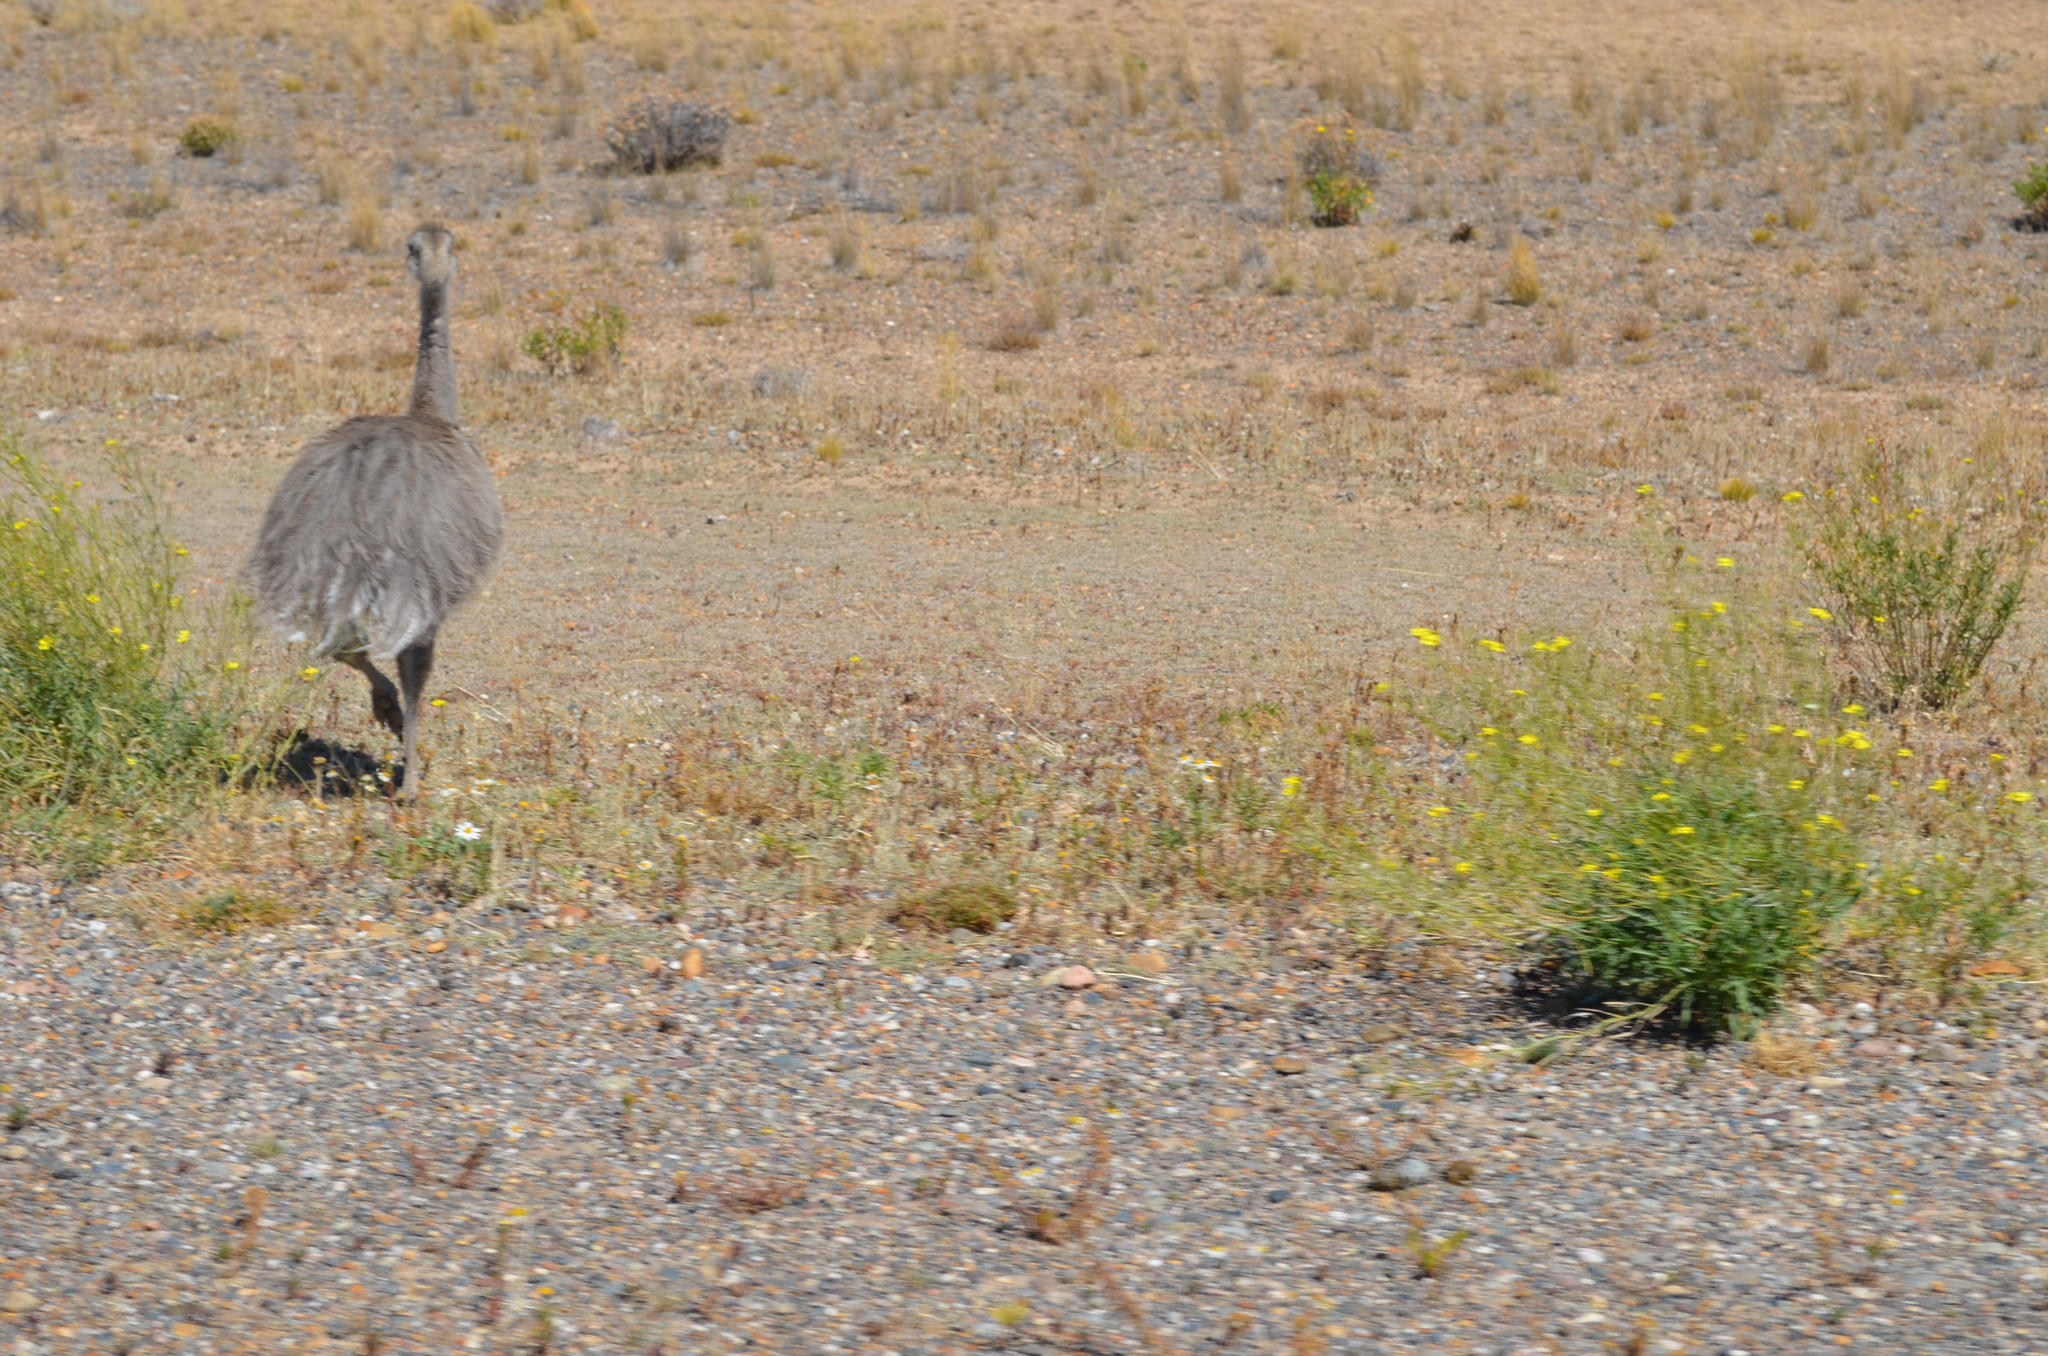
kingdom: Animalia
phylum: Chordata
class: Aves
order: Rheiformes
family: Rheidae
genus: Rhea
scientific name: Rhea pennata
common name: Lesser rhea
